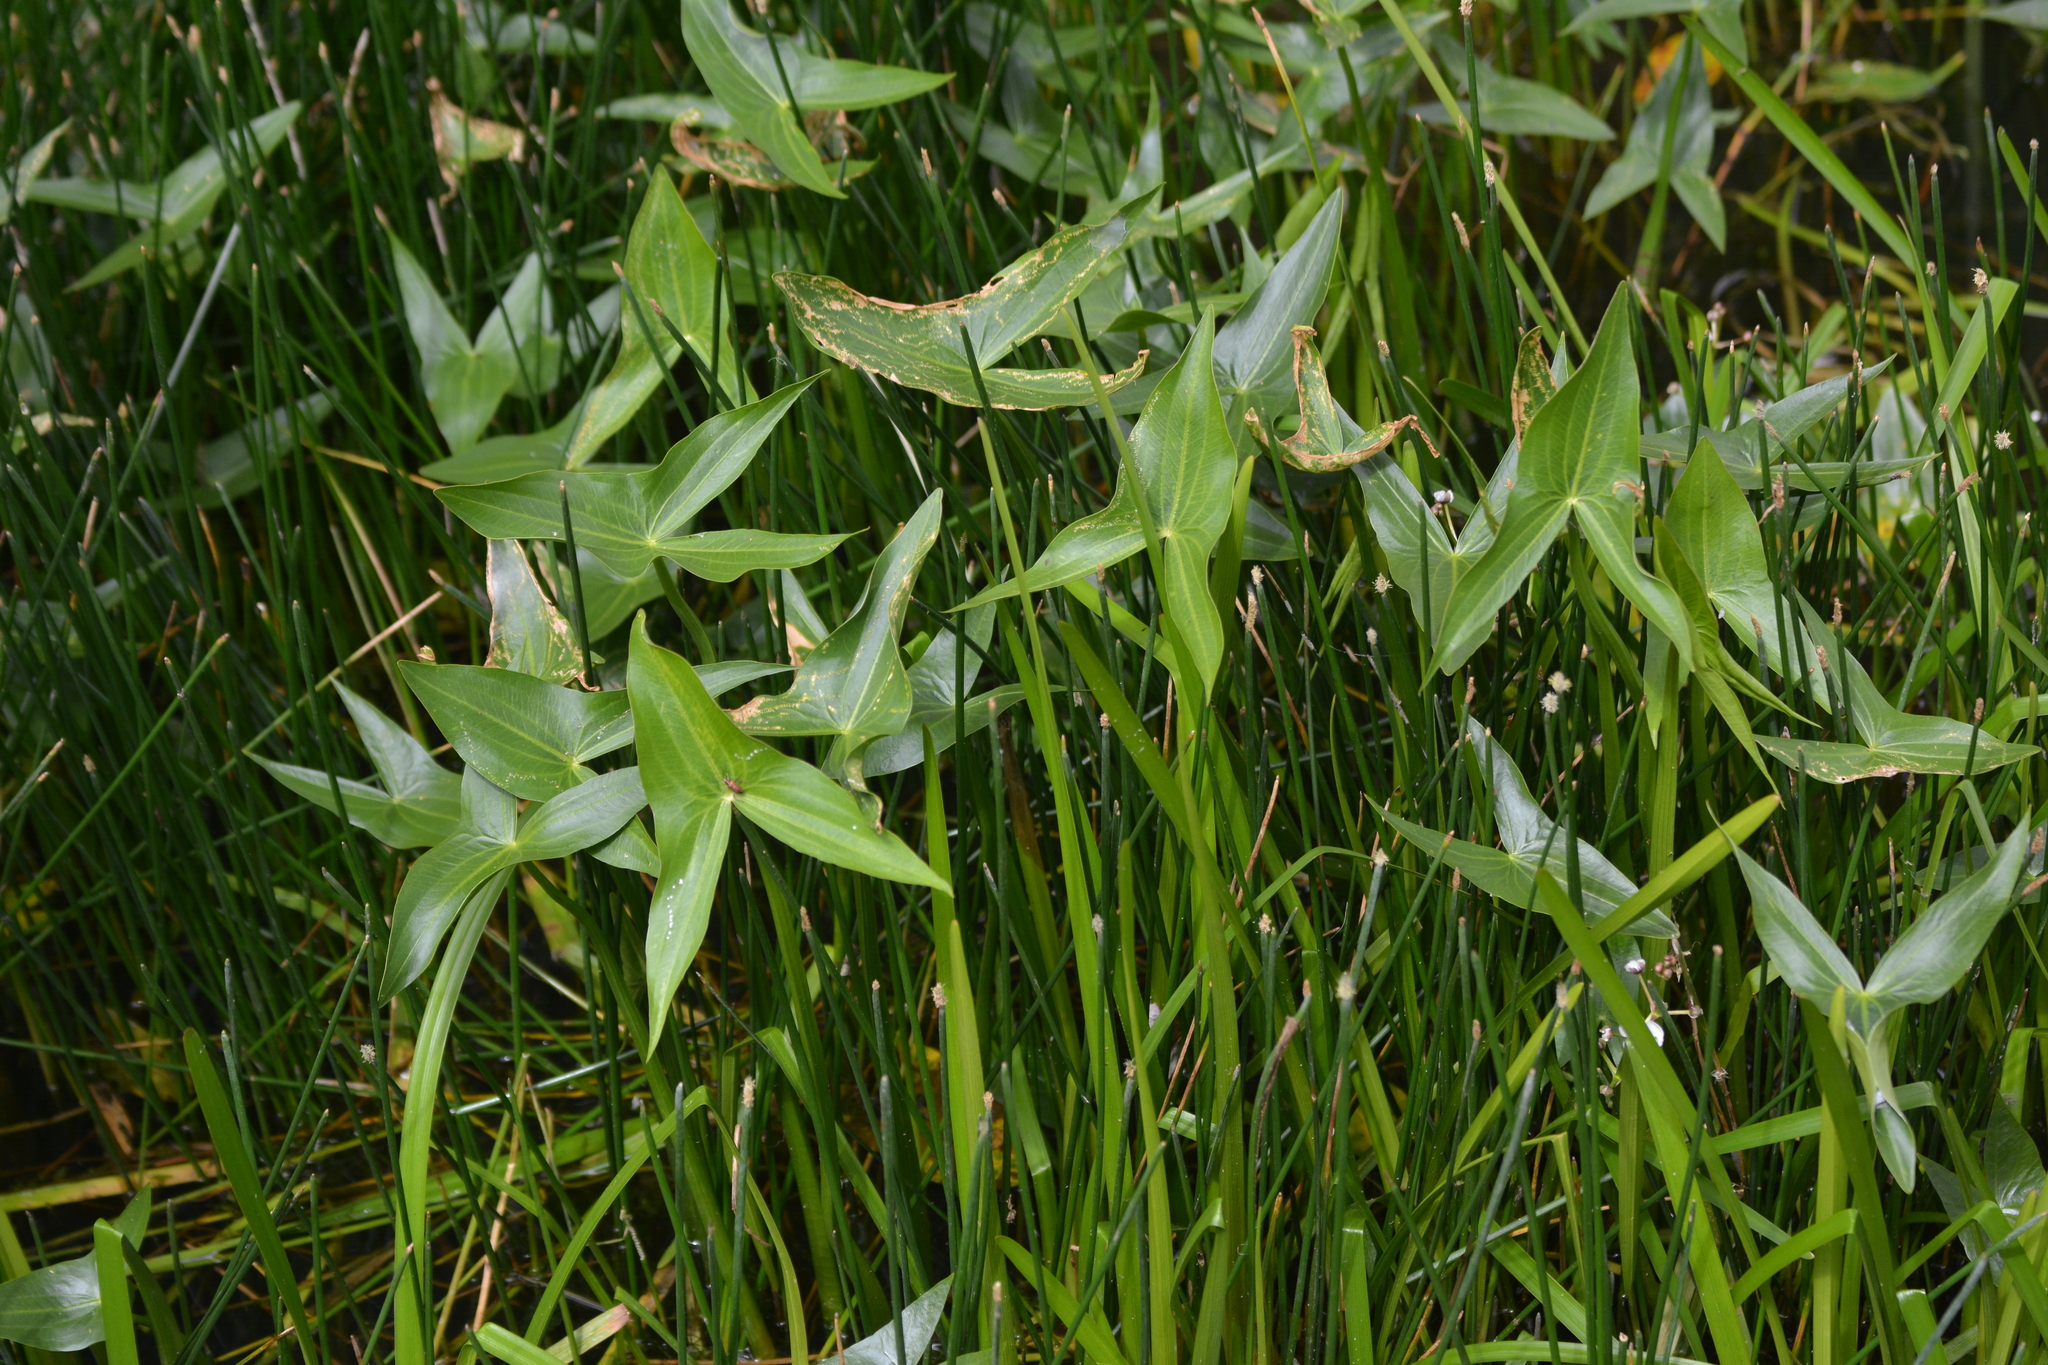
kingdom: Plantae
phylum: Tracheophyta
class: Liliopsida
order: Alismatales
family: Alismataceae
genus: Sagittaria
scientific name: Sagittaria sagittifolia
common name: Arrowhead
